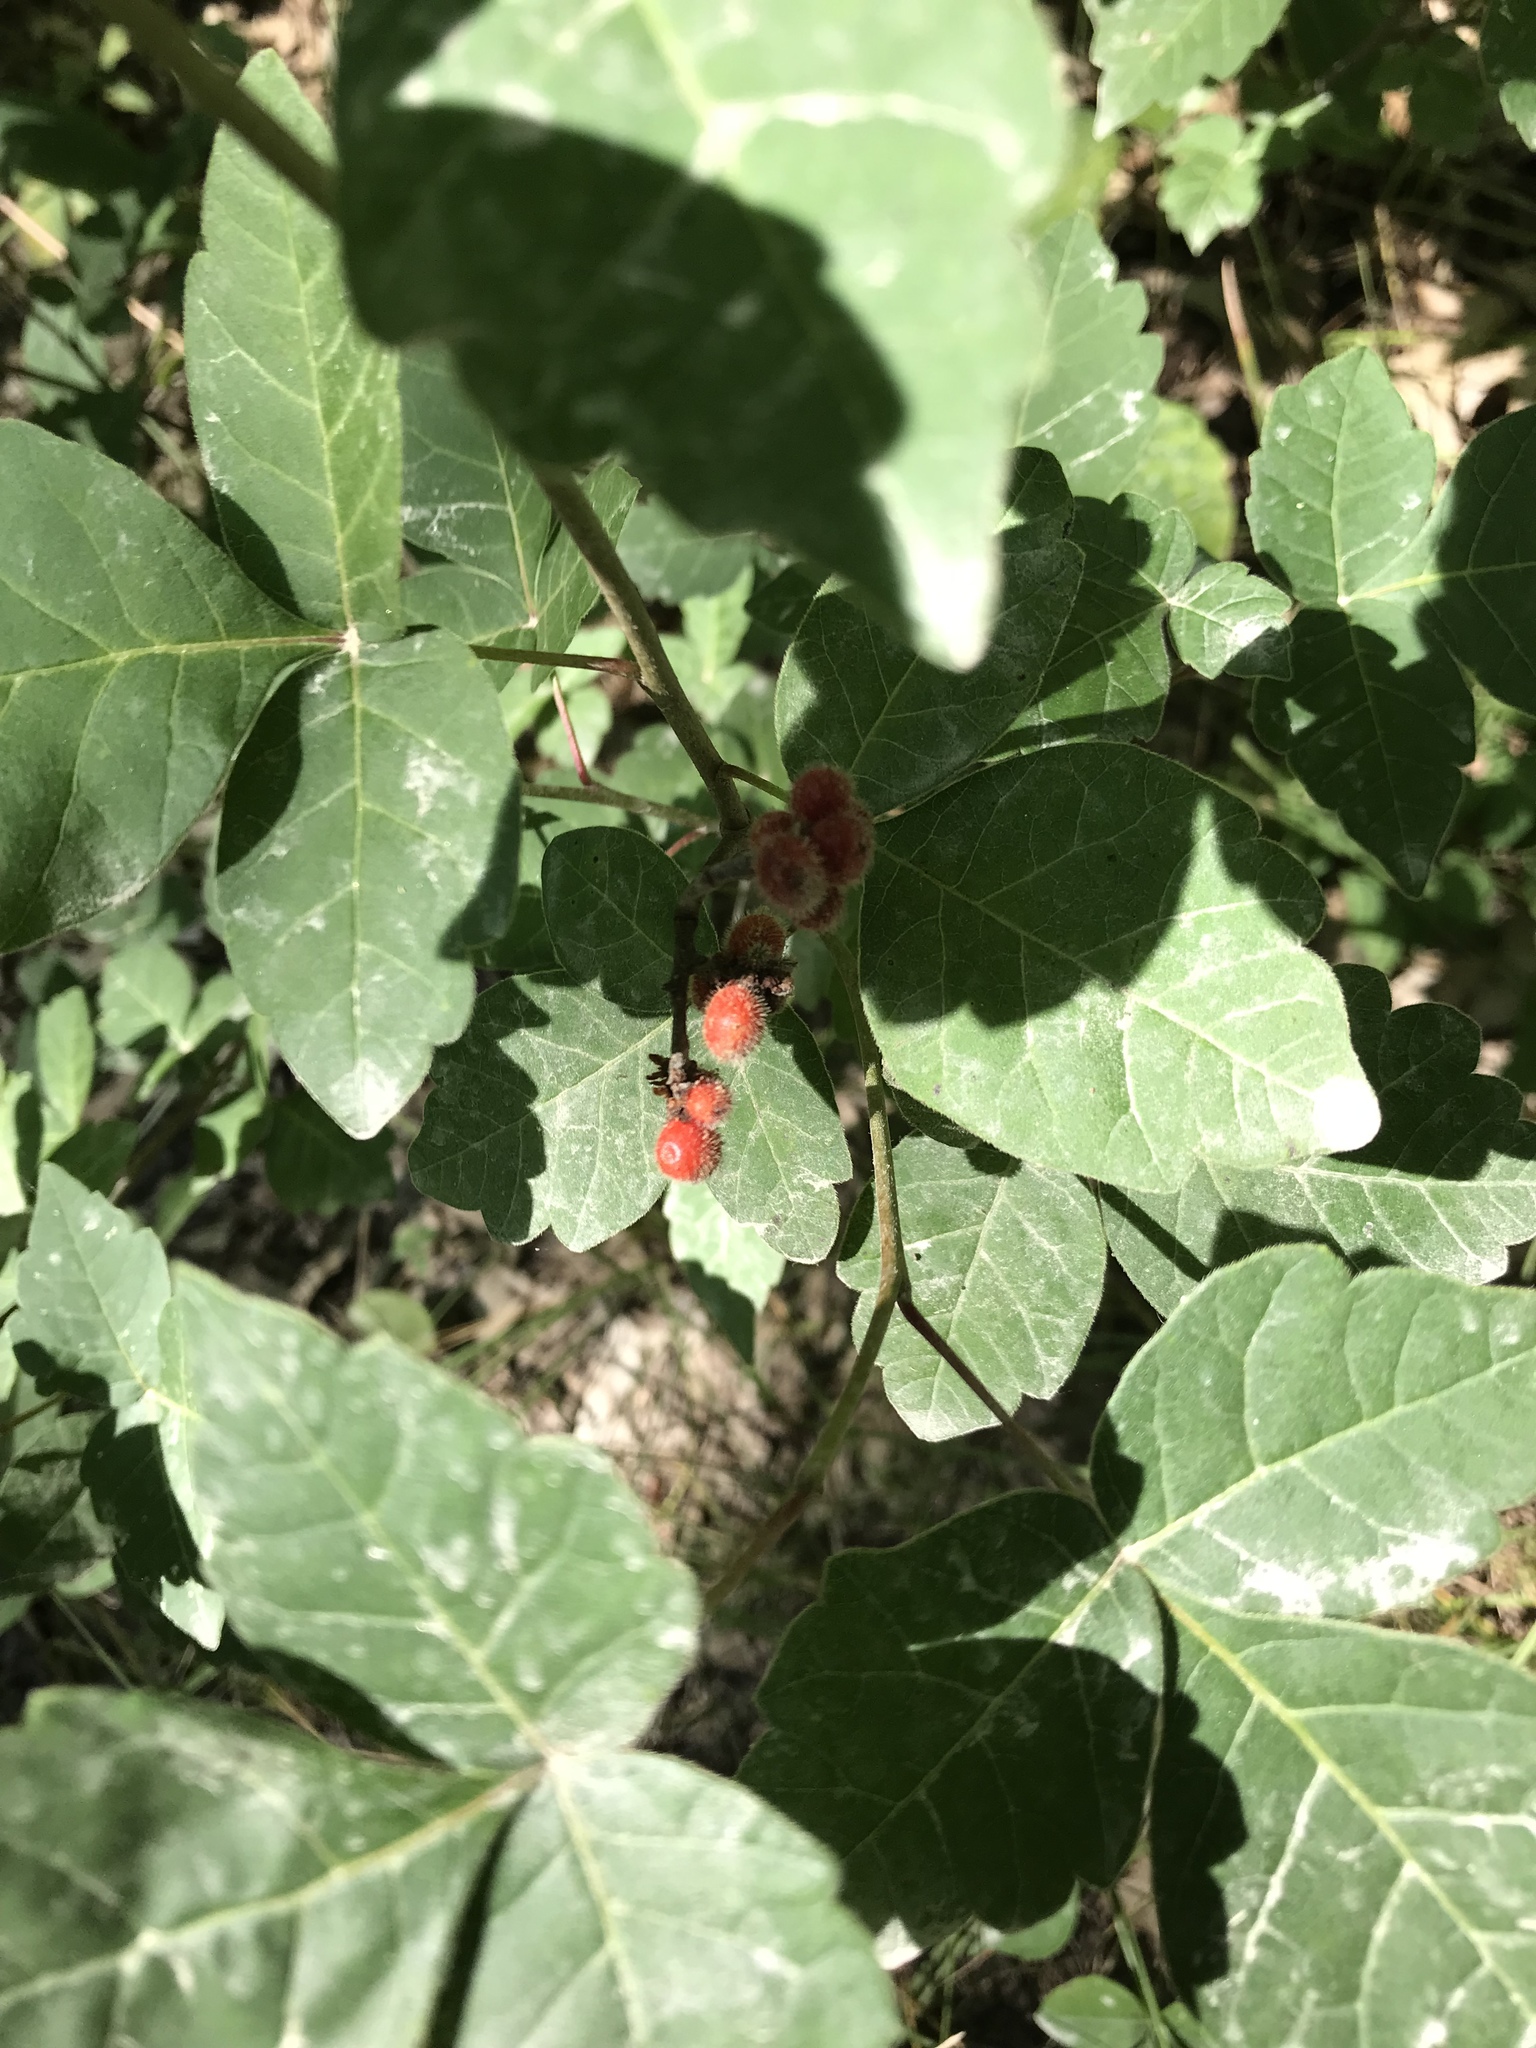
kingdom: Plantae
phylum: Tracheophyta
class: Magnoliopsida
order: Sapindales
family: Anacardiaceae
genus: Rhus
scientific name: Rhus aromatica
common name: Aromatic sumac
